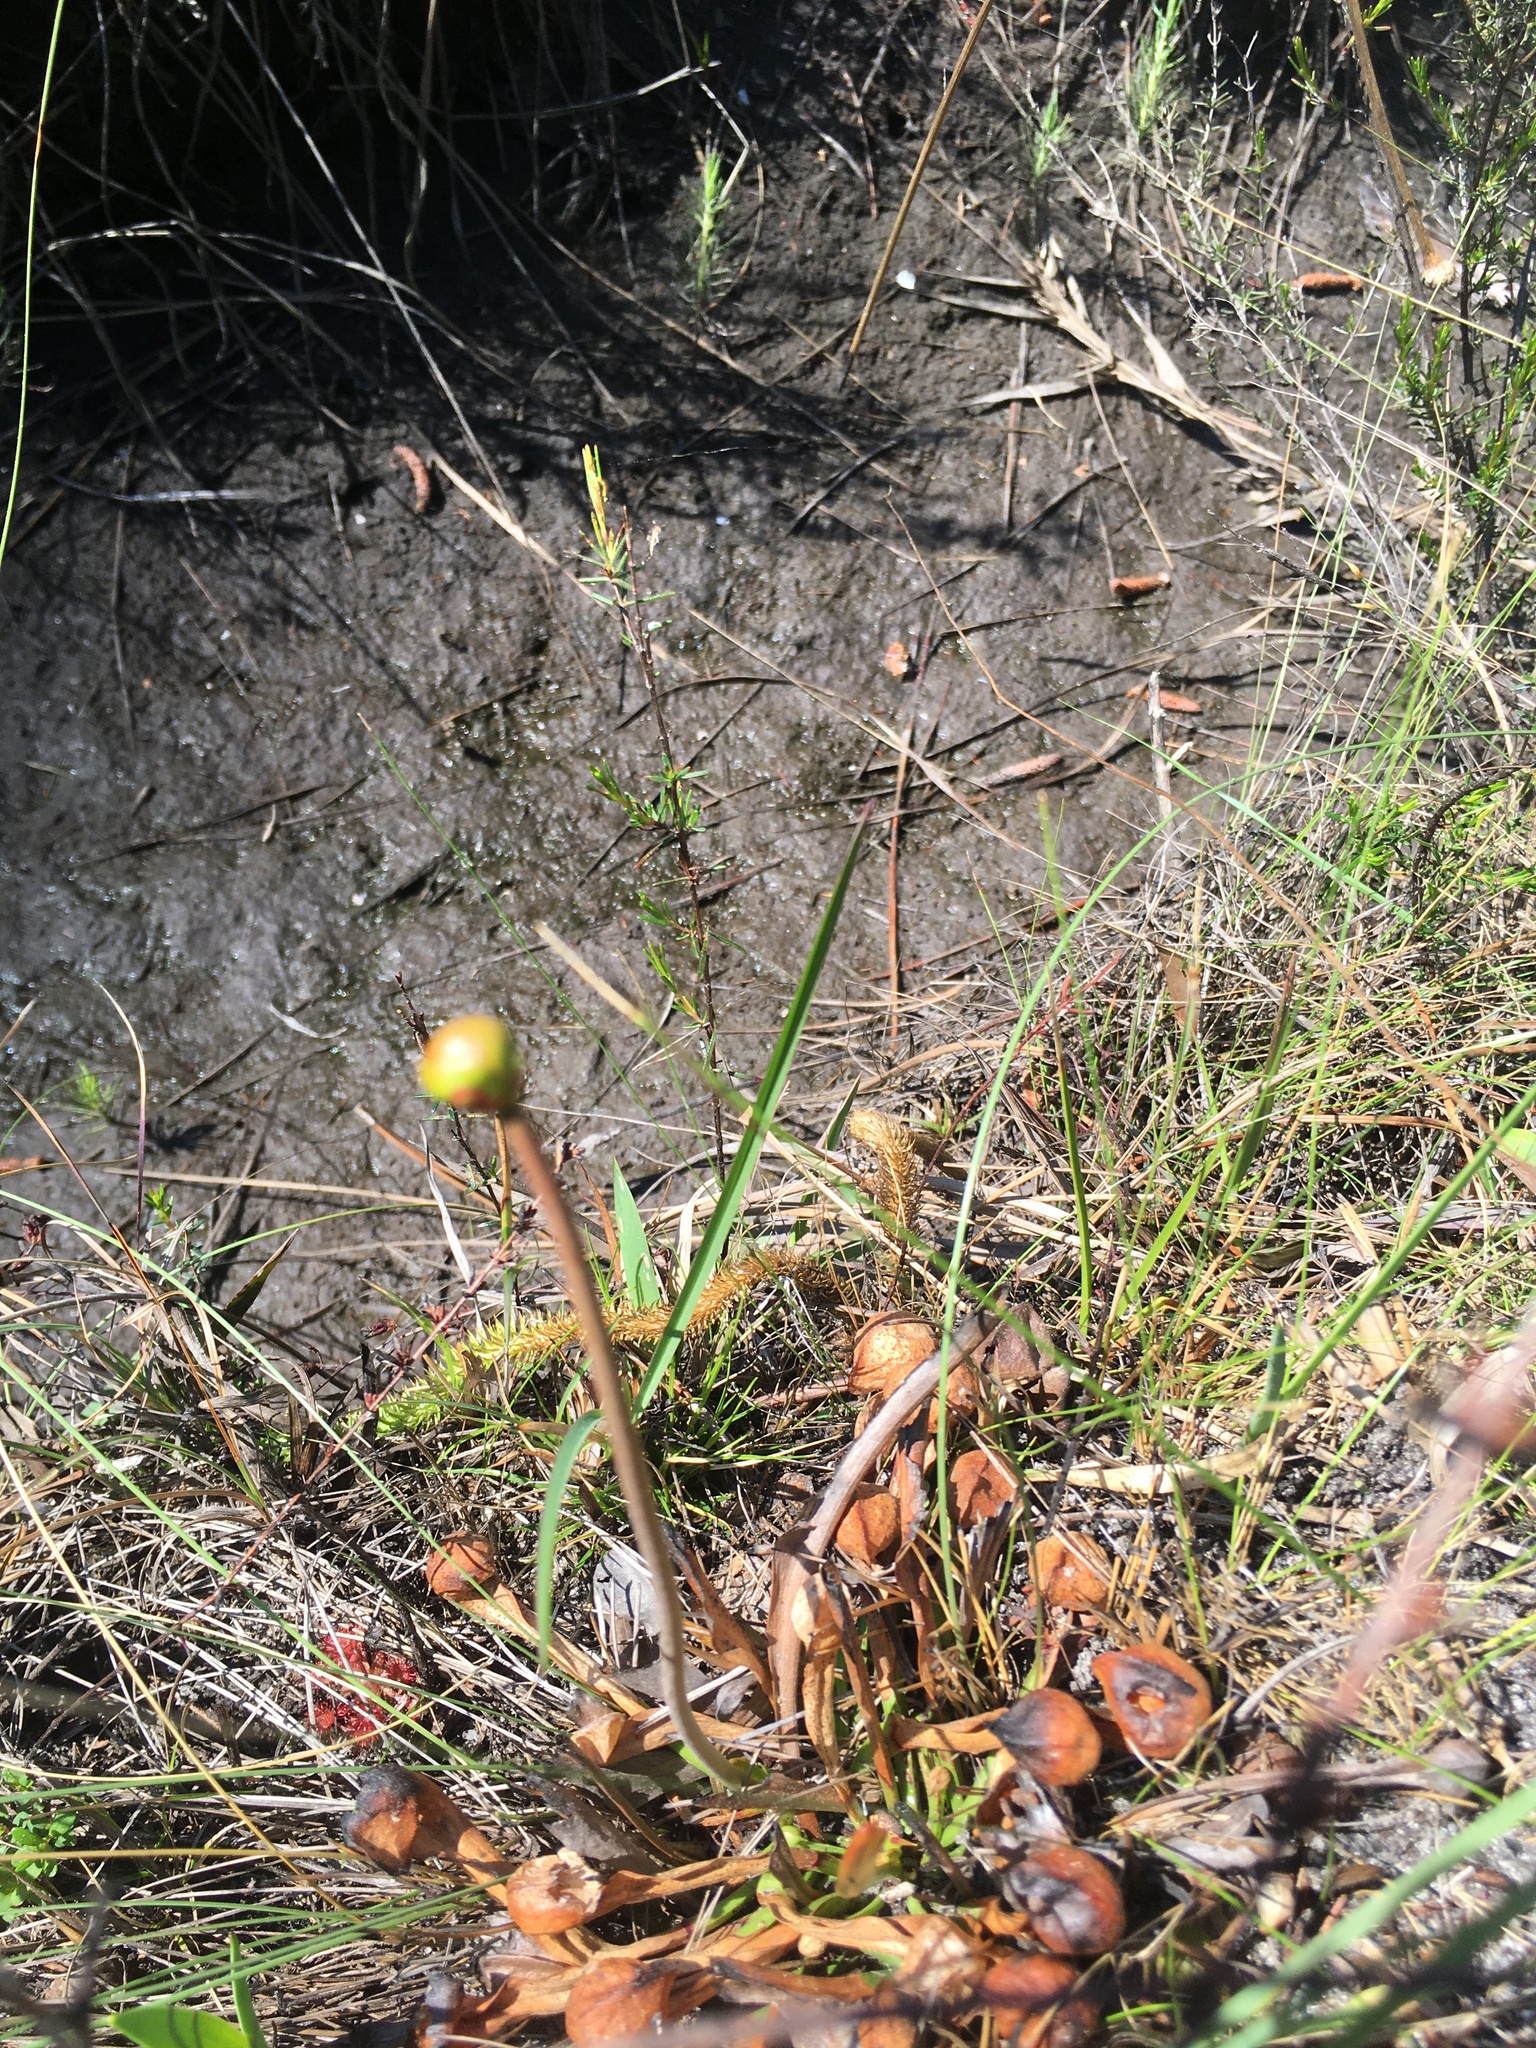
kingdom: Plantae
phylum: Tracheophyta
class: Magnoliopsida
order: Ericales
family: Sarraceniaceae
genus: Sarracenia
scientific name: Sarracenia psittacina
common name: Parrot pitcherplant
